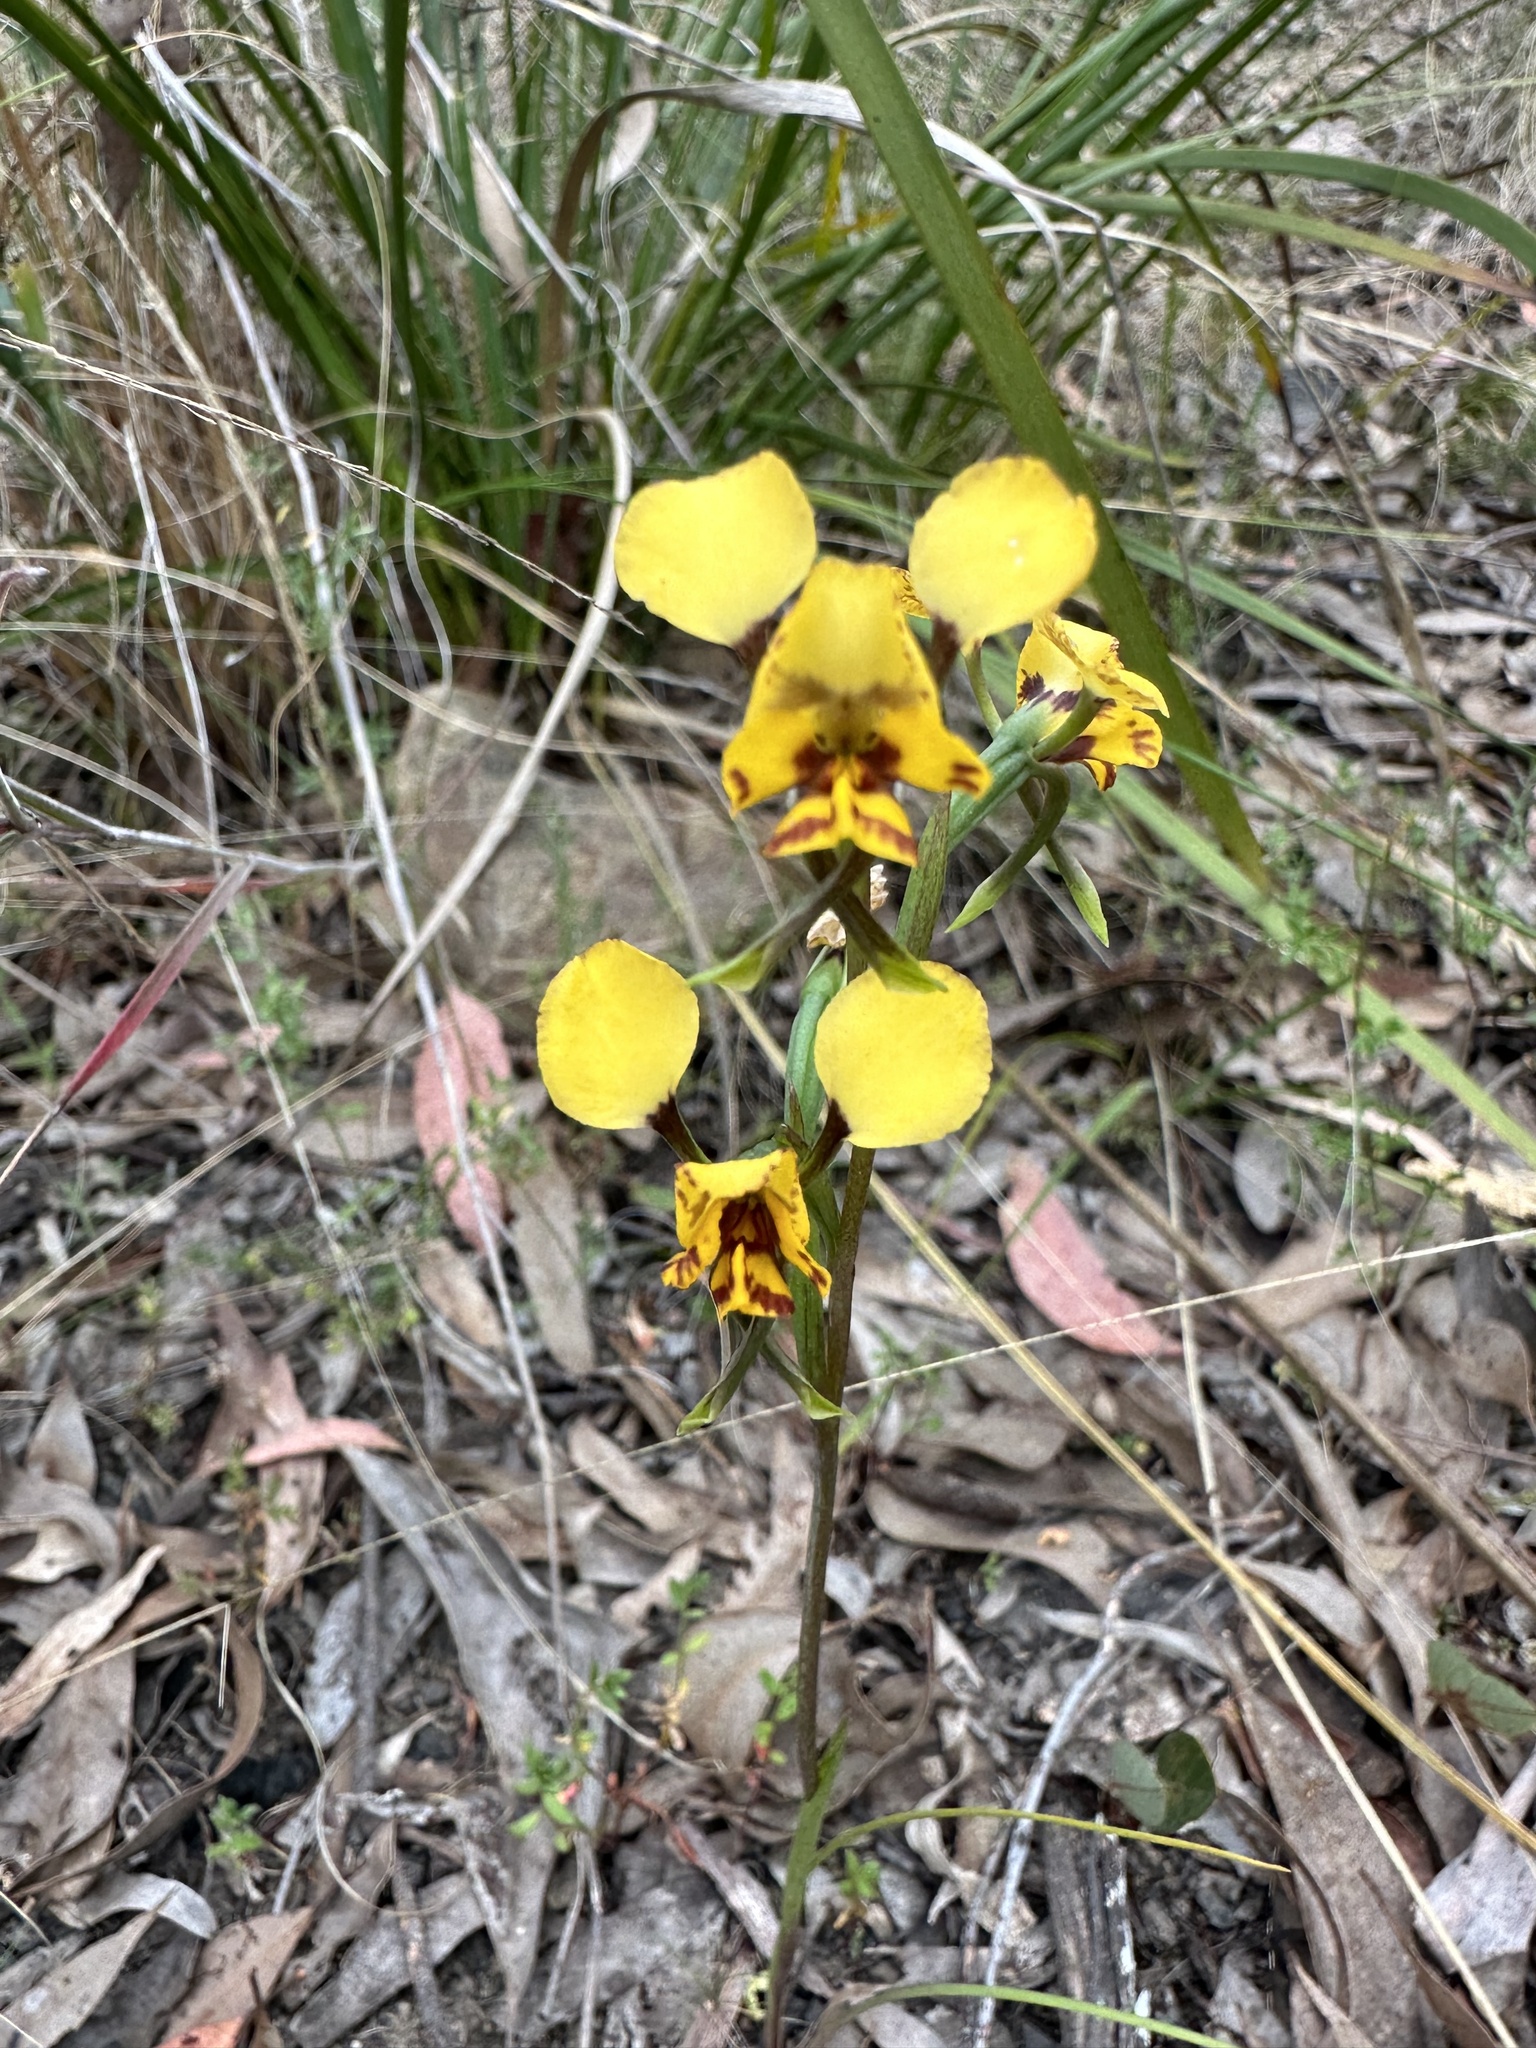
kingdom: Plantae
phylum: Tracheophyta
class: Liliopsida
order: Asparagales
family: Orchidaceae
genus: Diuris
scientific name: Diuris nigromontana
